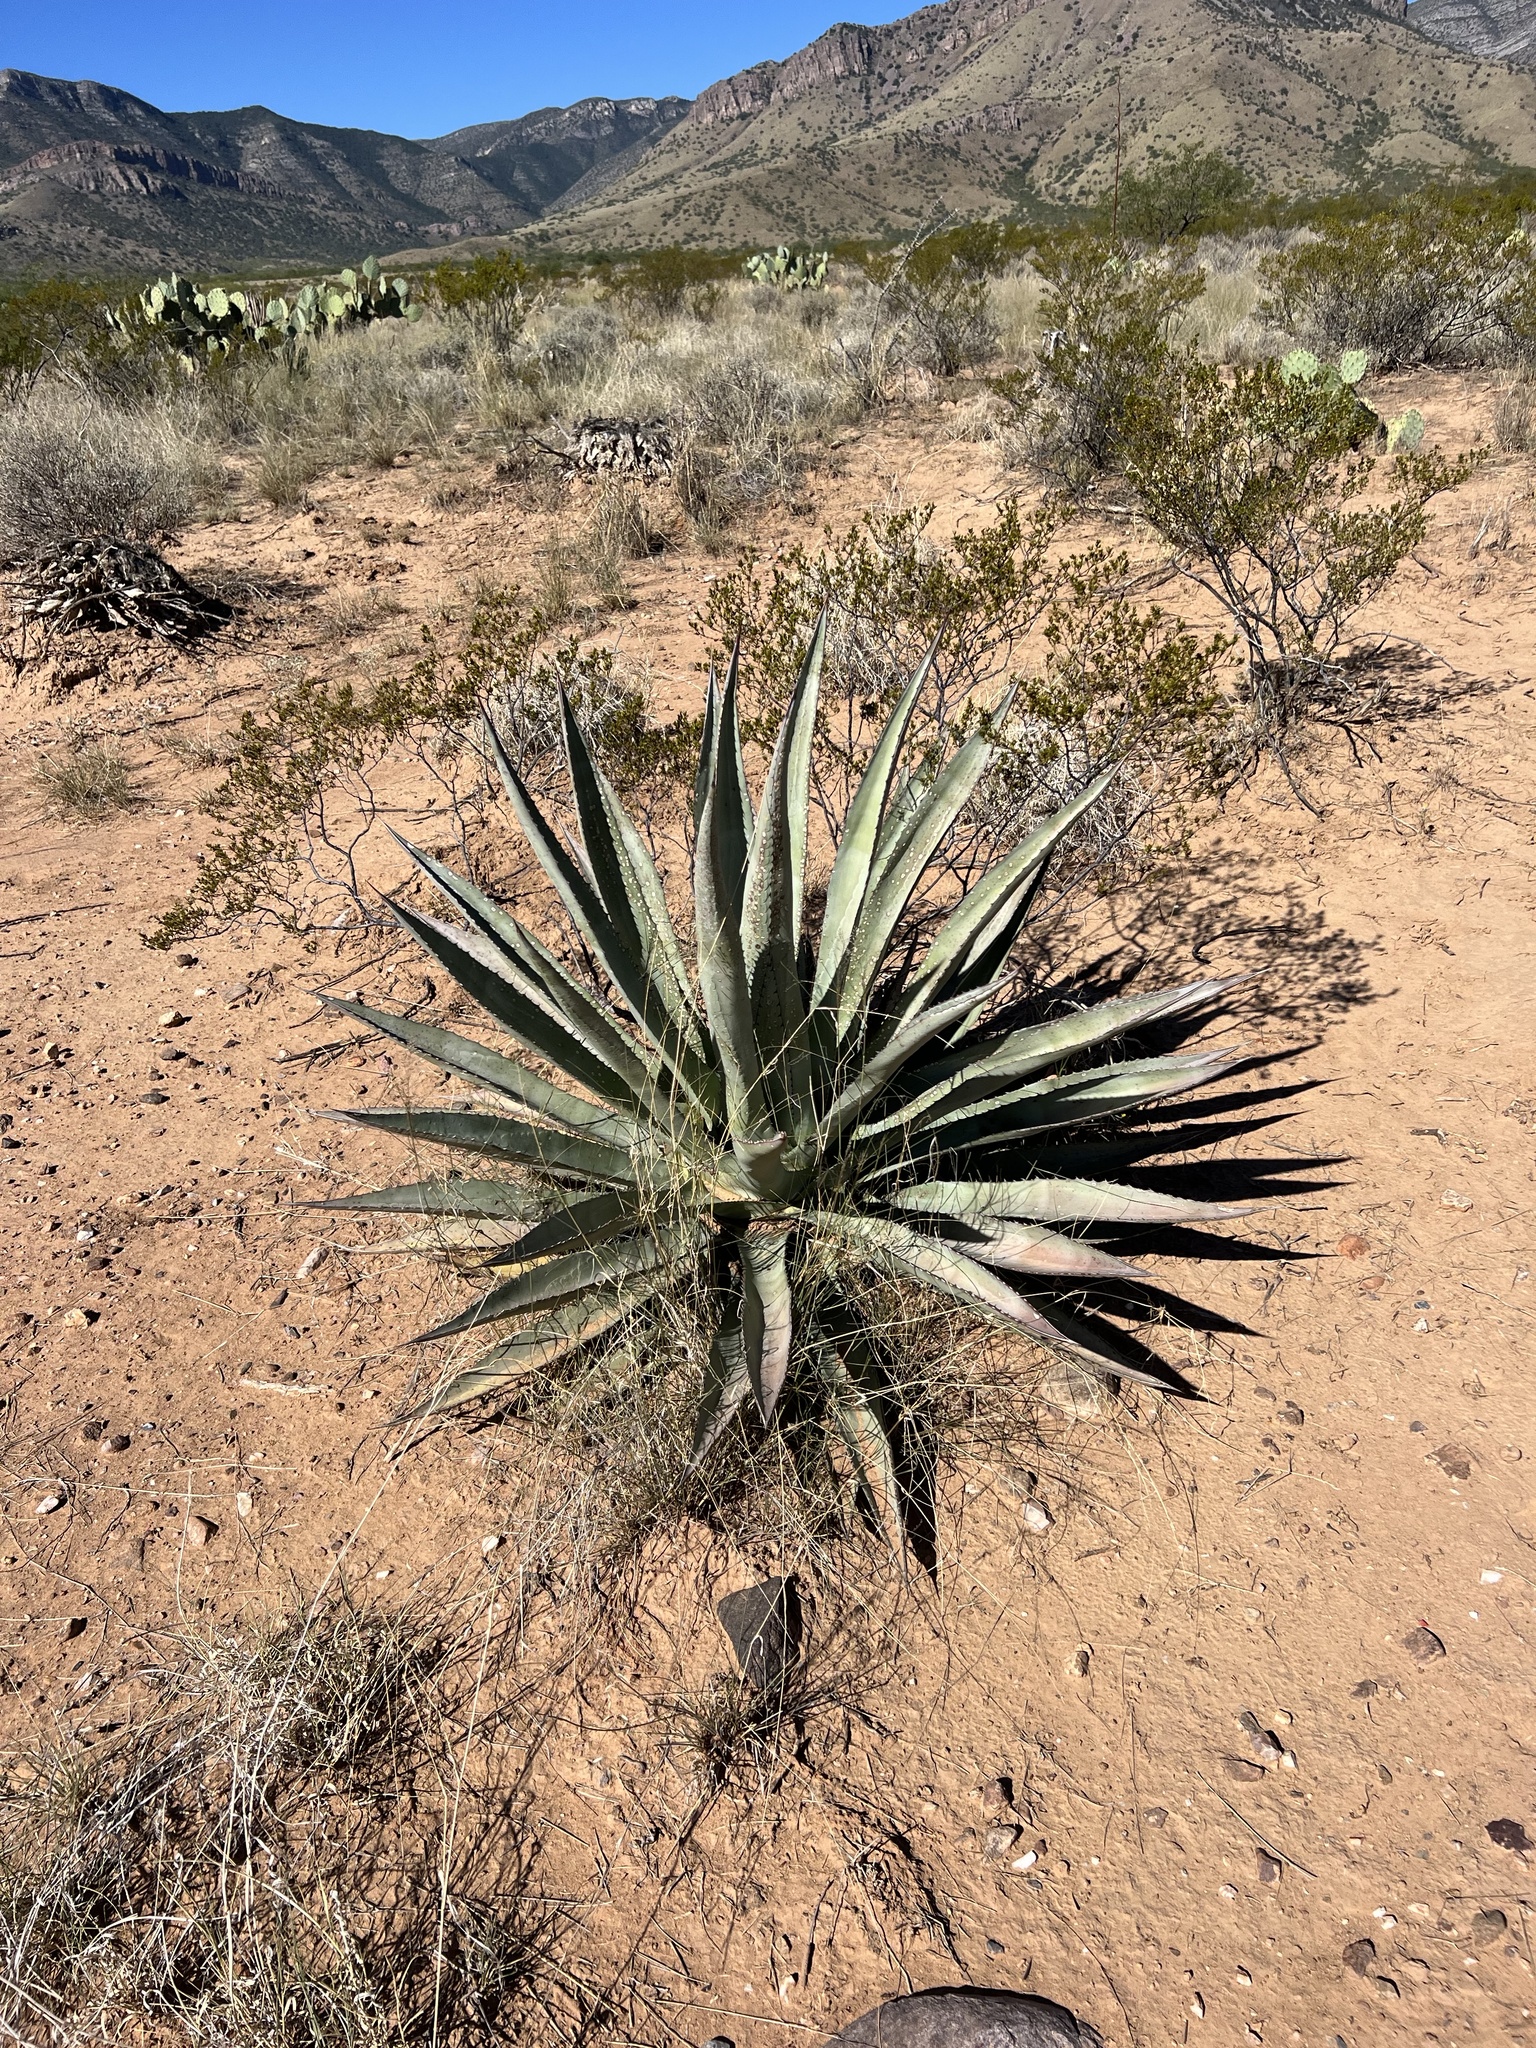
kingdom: Plantae
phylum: Tracheophyta
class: Liliopsida
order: Asparagales
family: Asparagaceae
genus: Agave
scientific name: Agave palmeri
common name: Palmer agave
